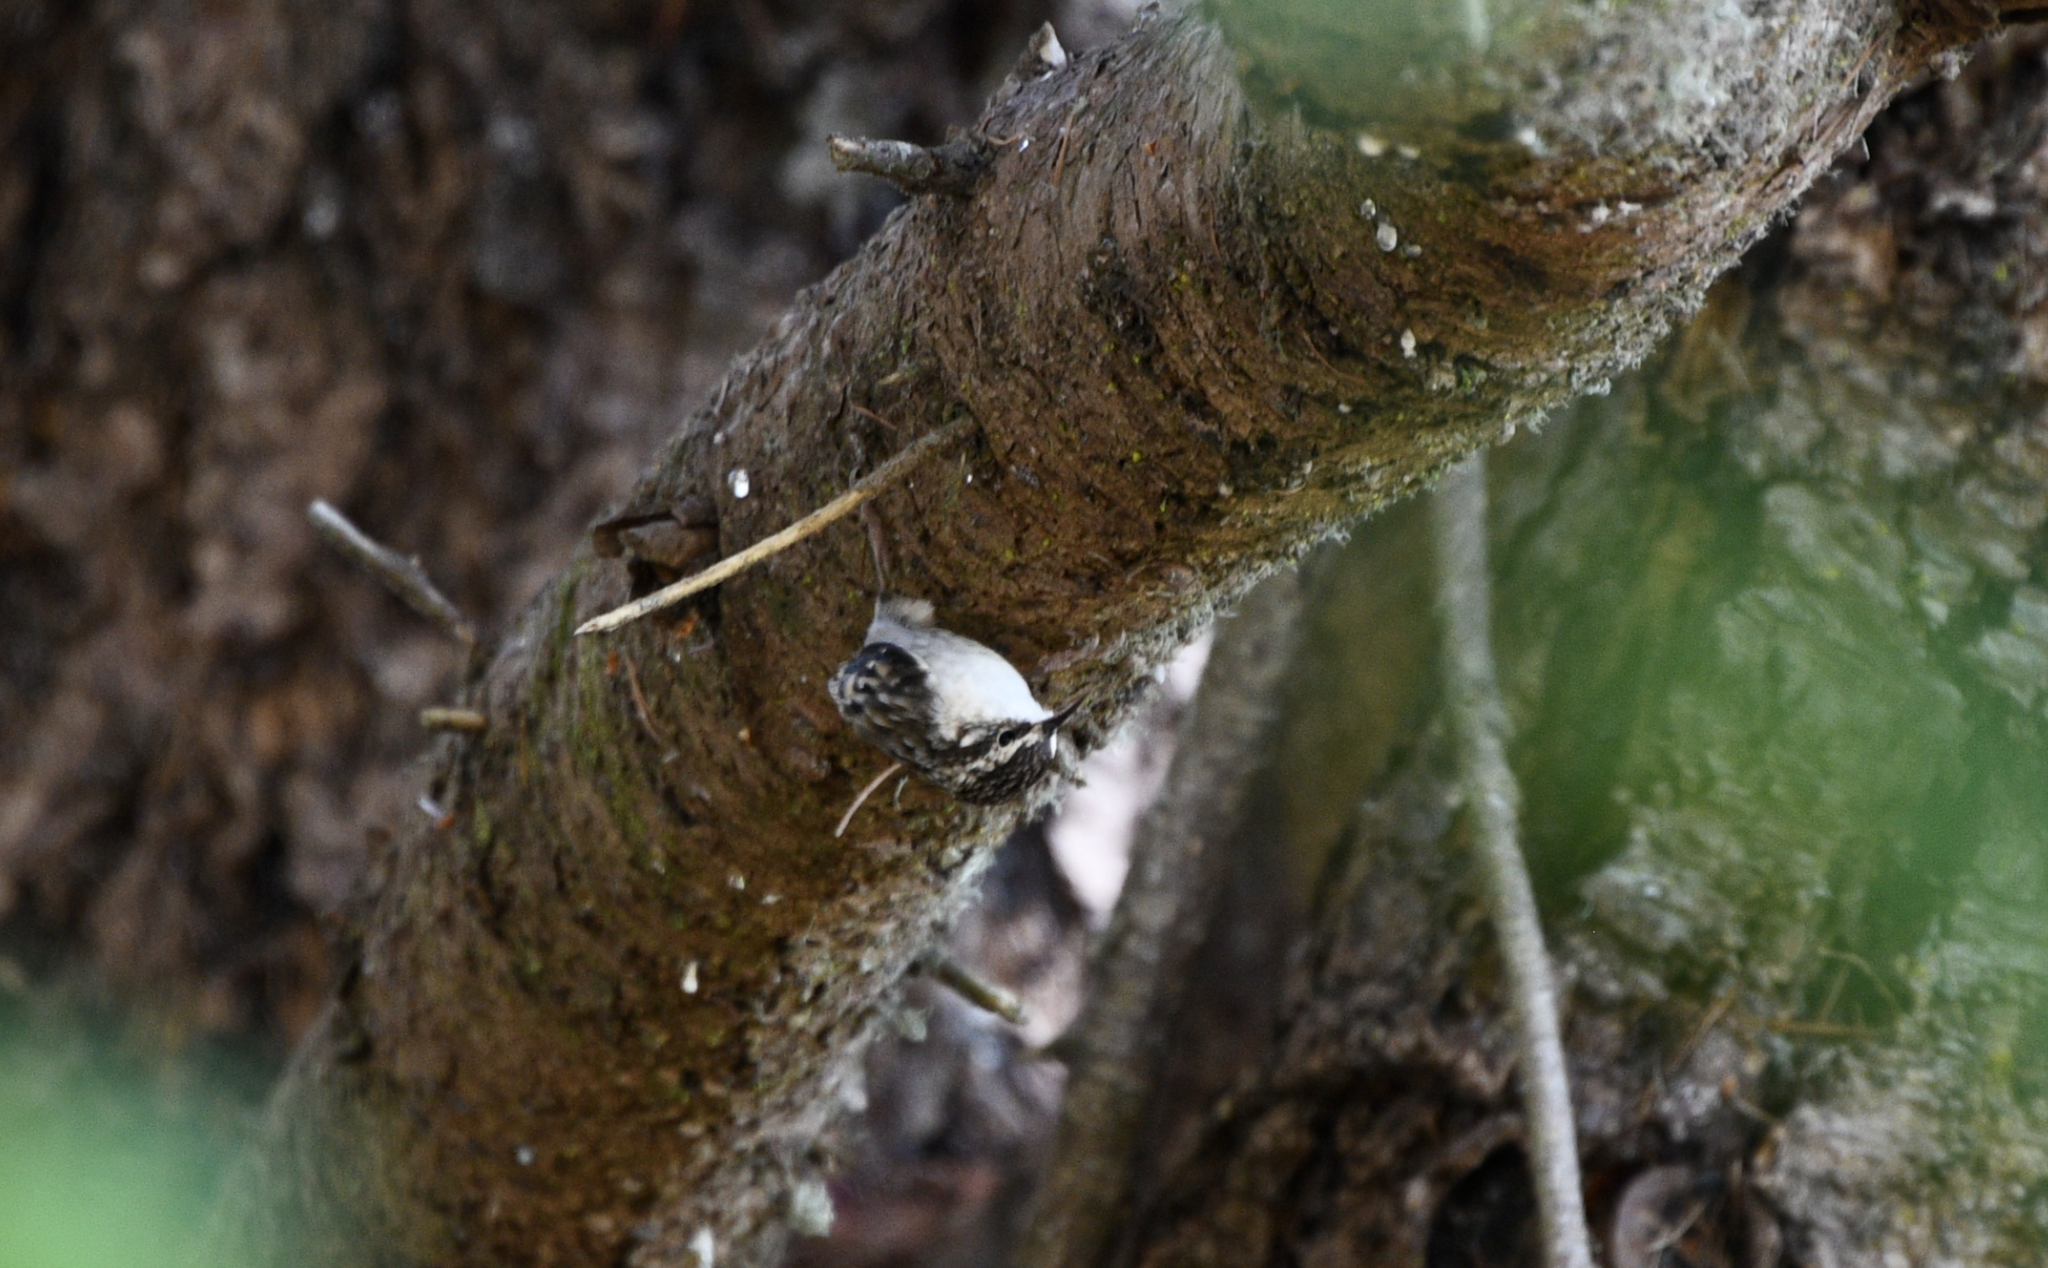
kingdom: Animalia
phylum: Chordata
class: Aves
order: Passeriformes
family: Certhiidae
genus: Certhia
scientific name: Certhia americana
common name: Brown creeper
